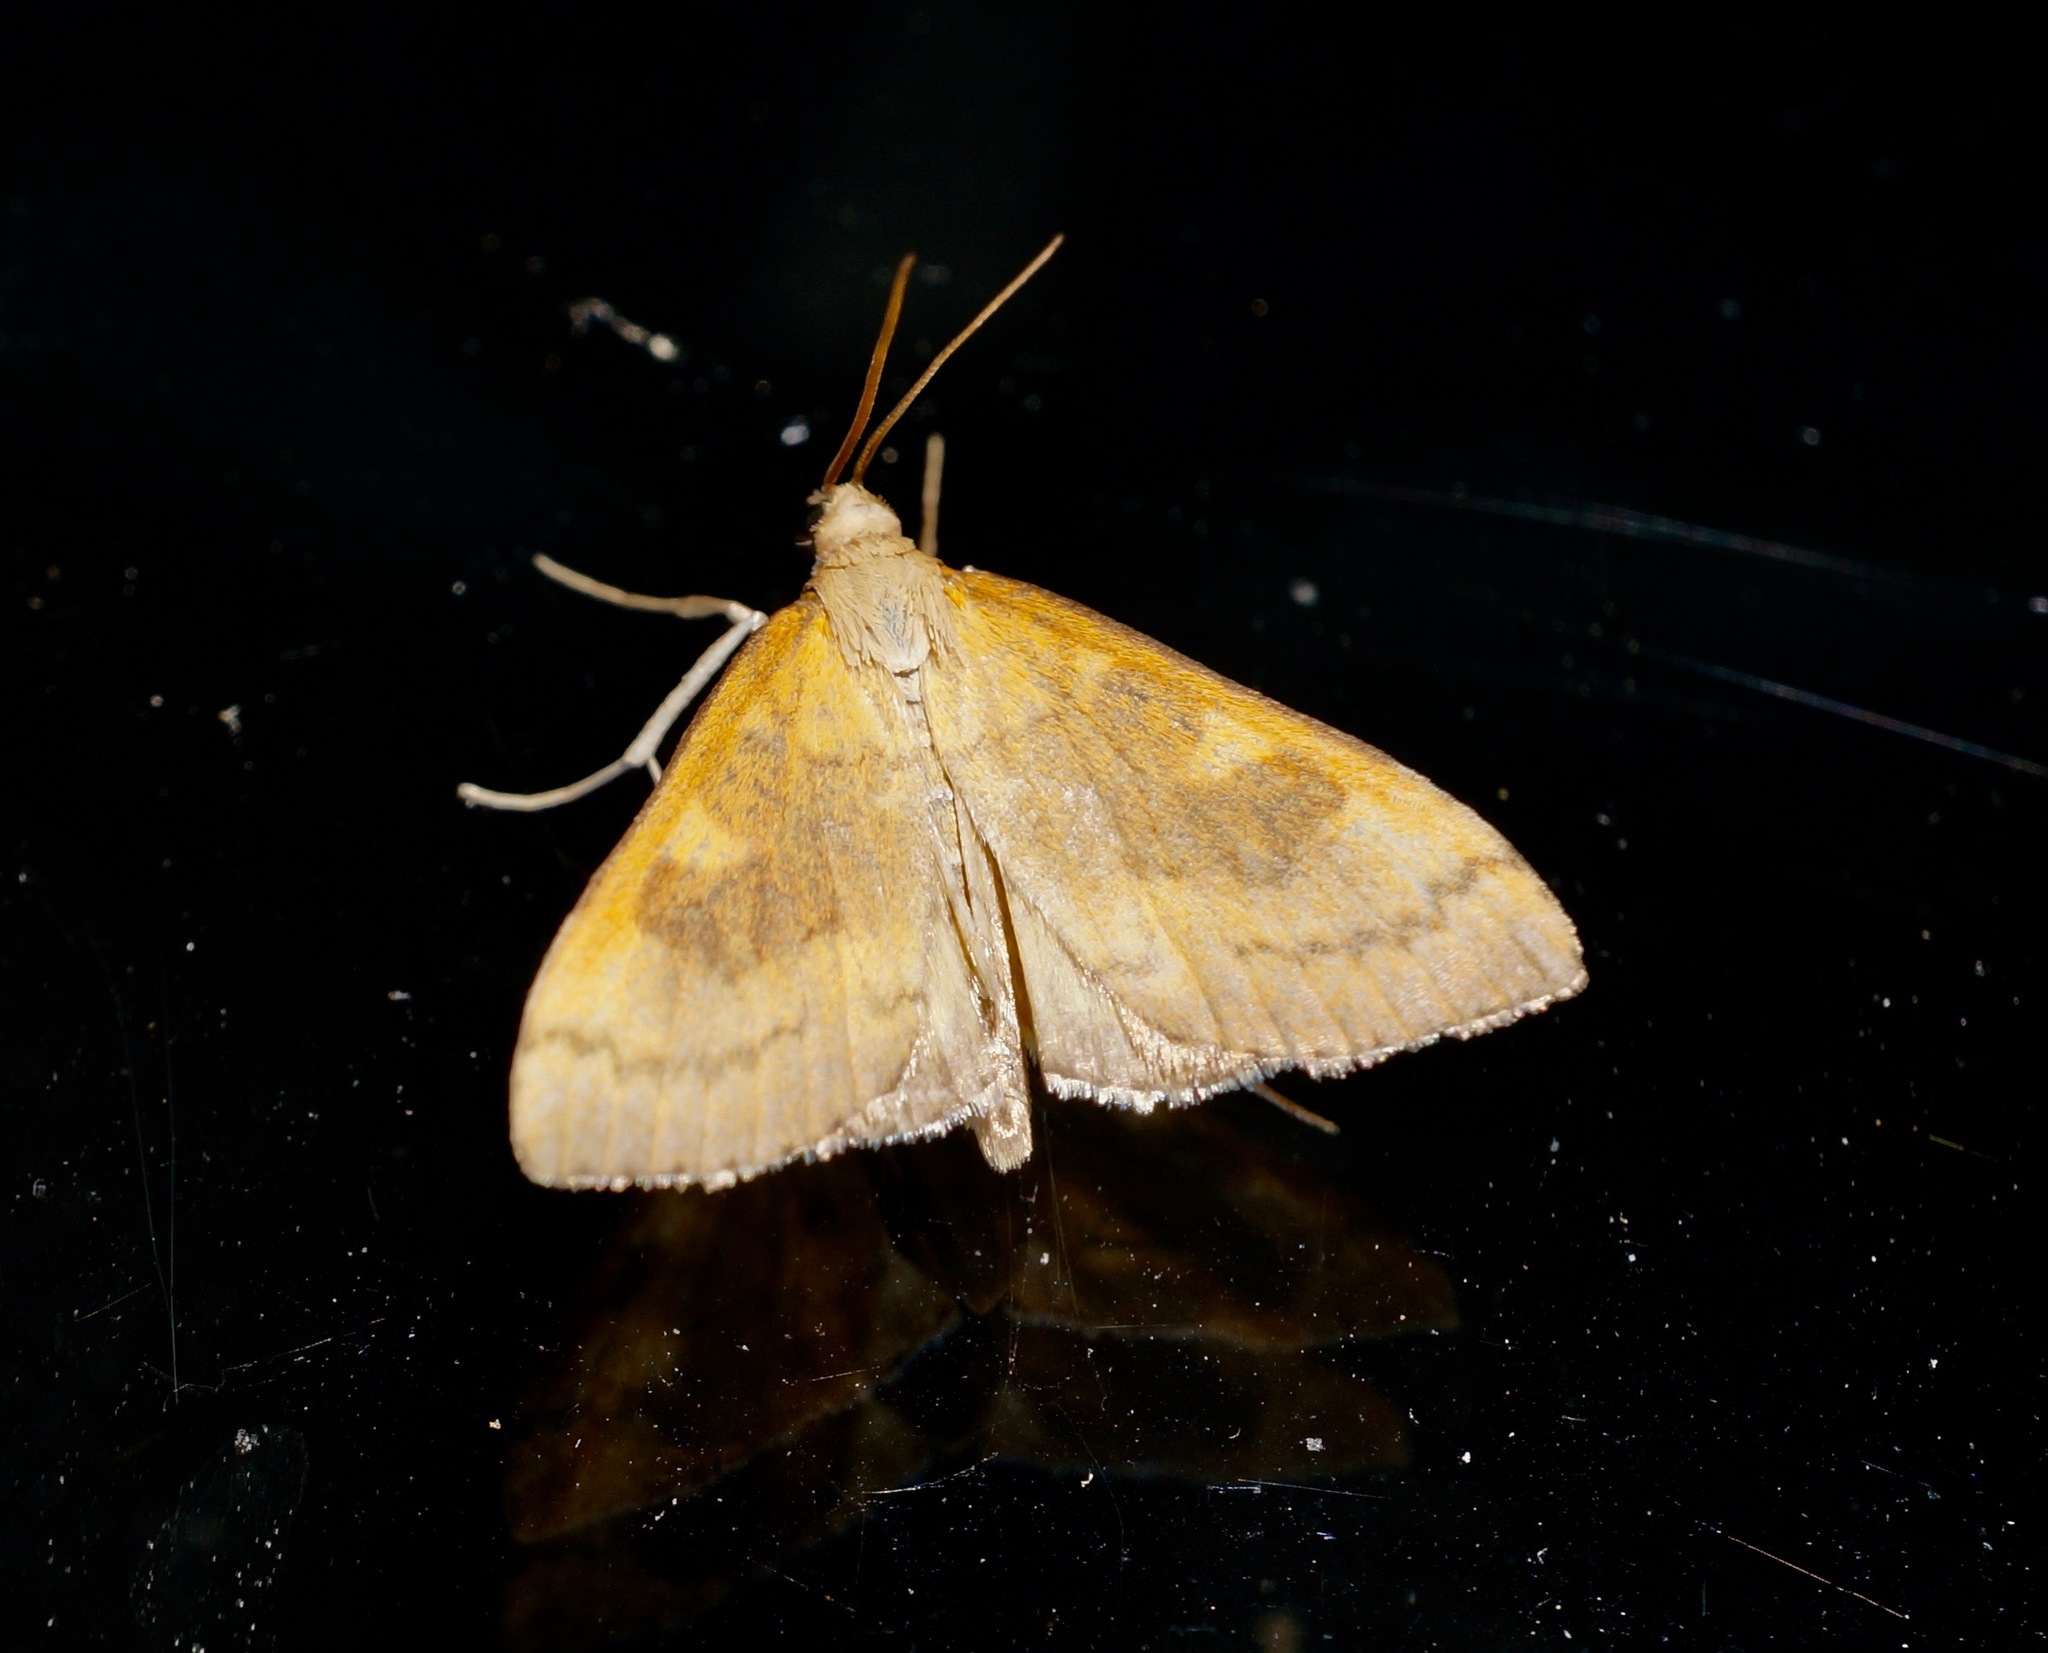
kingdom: Animalia
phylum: Arthropoda
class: Insecta
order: Lepidoptera
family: Crambidae
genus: Udea
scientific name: Udea Mnesictena flavidalis
